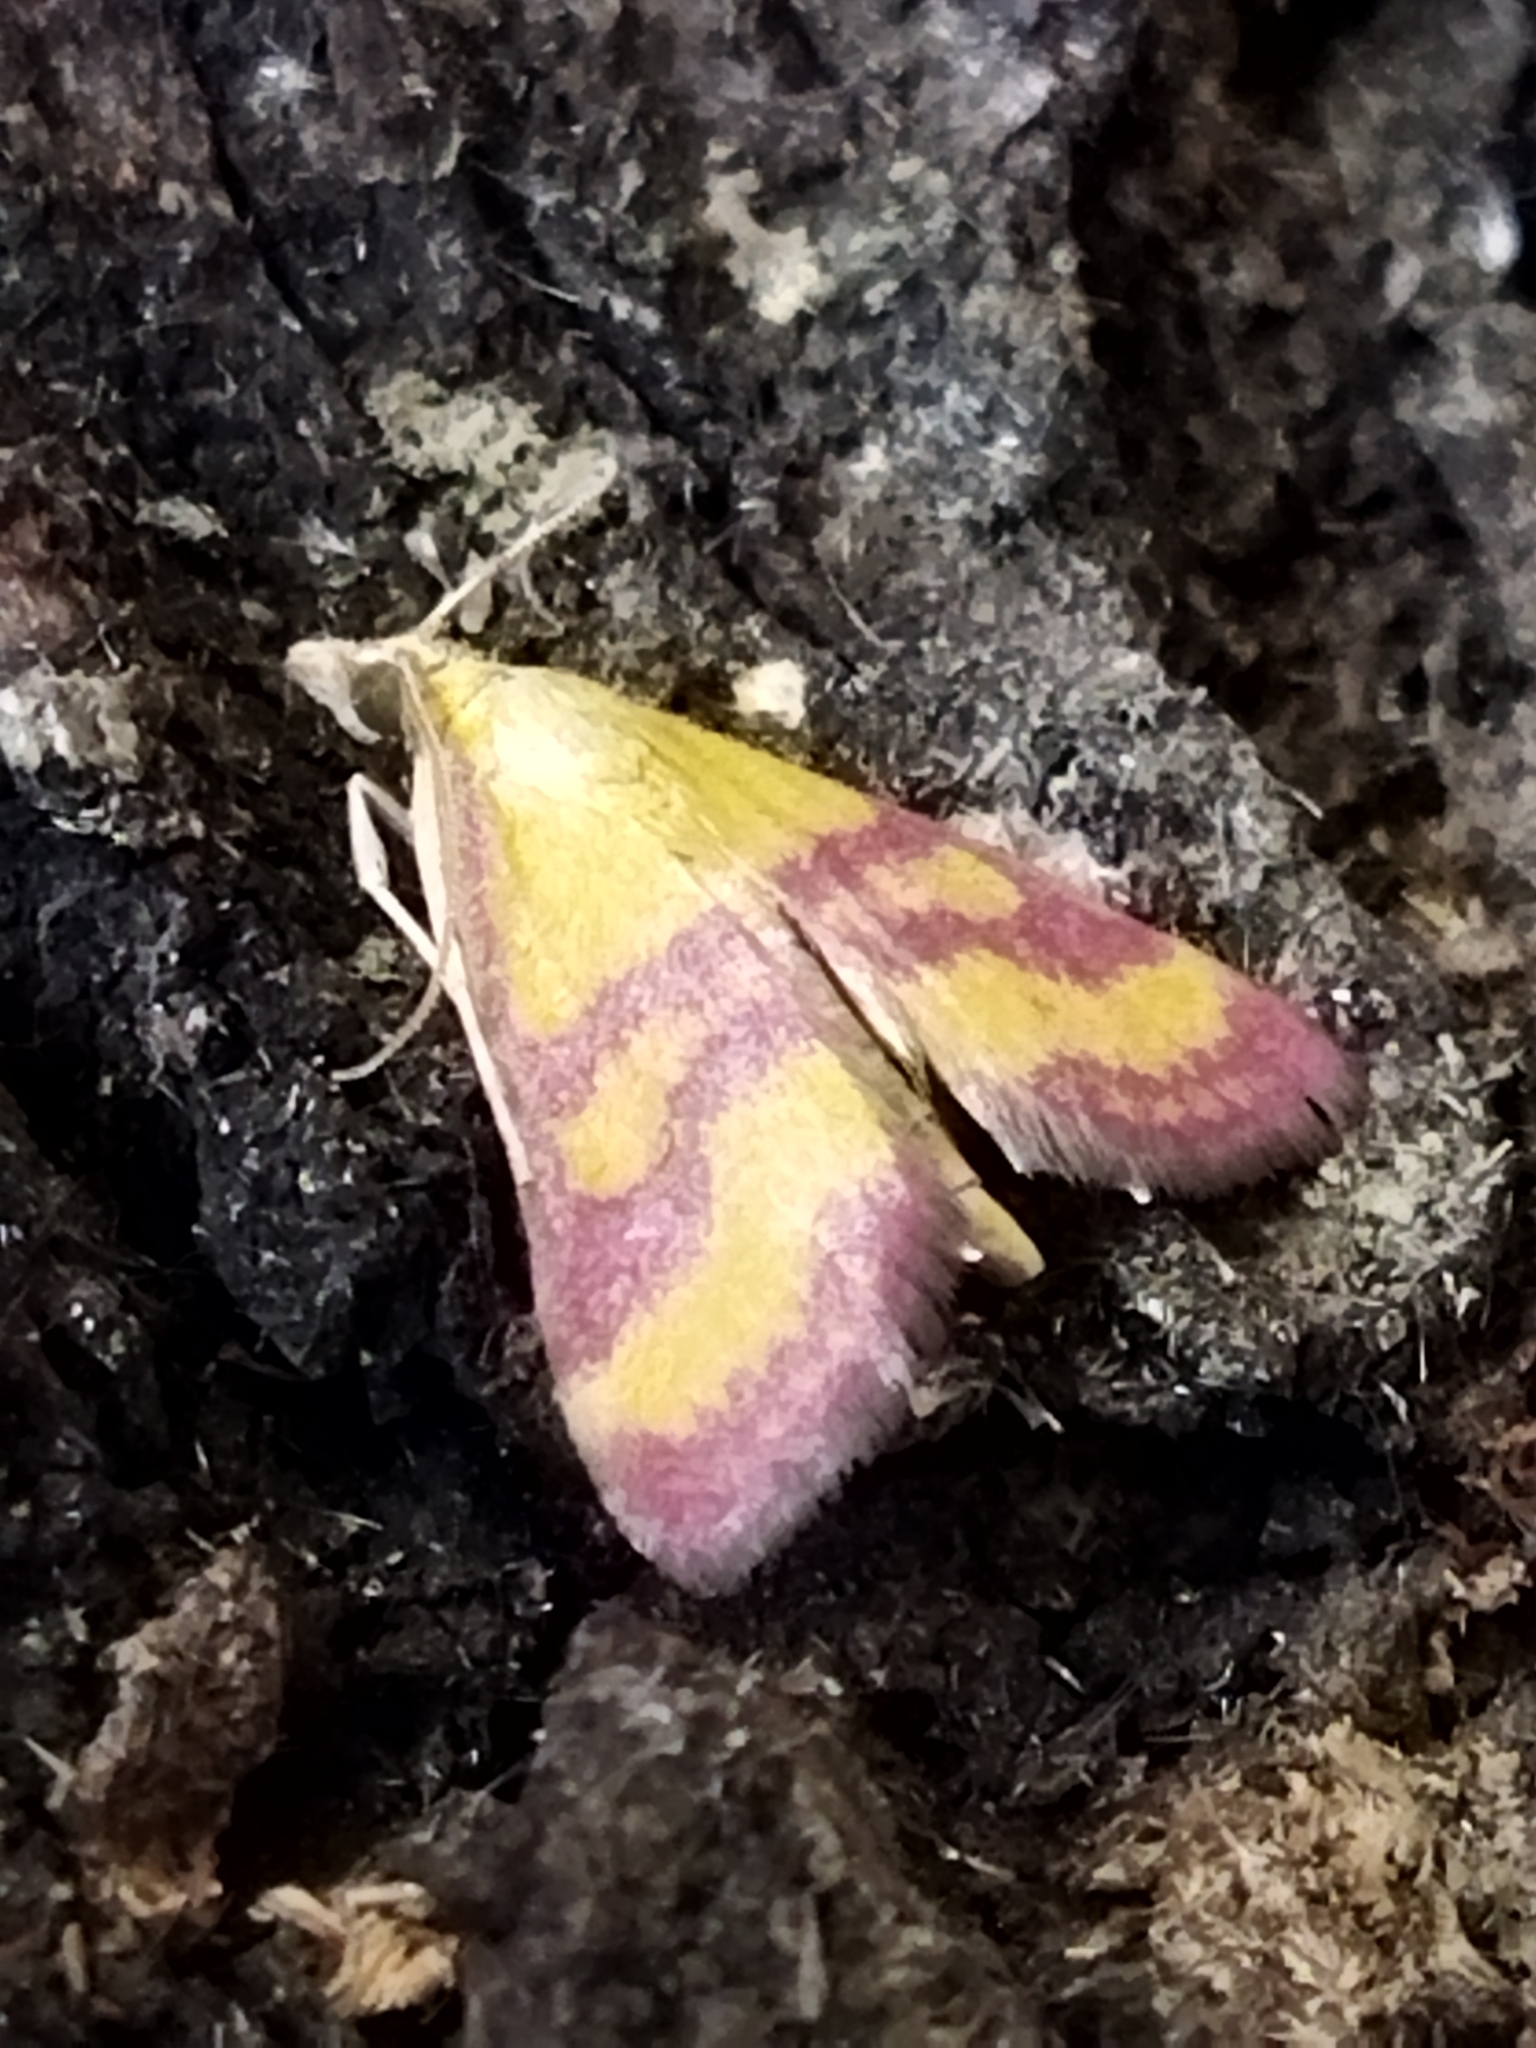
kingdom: Animalia
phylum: Arthropoda
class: Insecta
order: Lepidoptera
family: Crambidae
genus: Pyrausta
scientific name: Pyrausta sanguinalis
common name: Scarce crimson and gold
